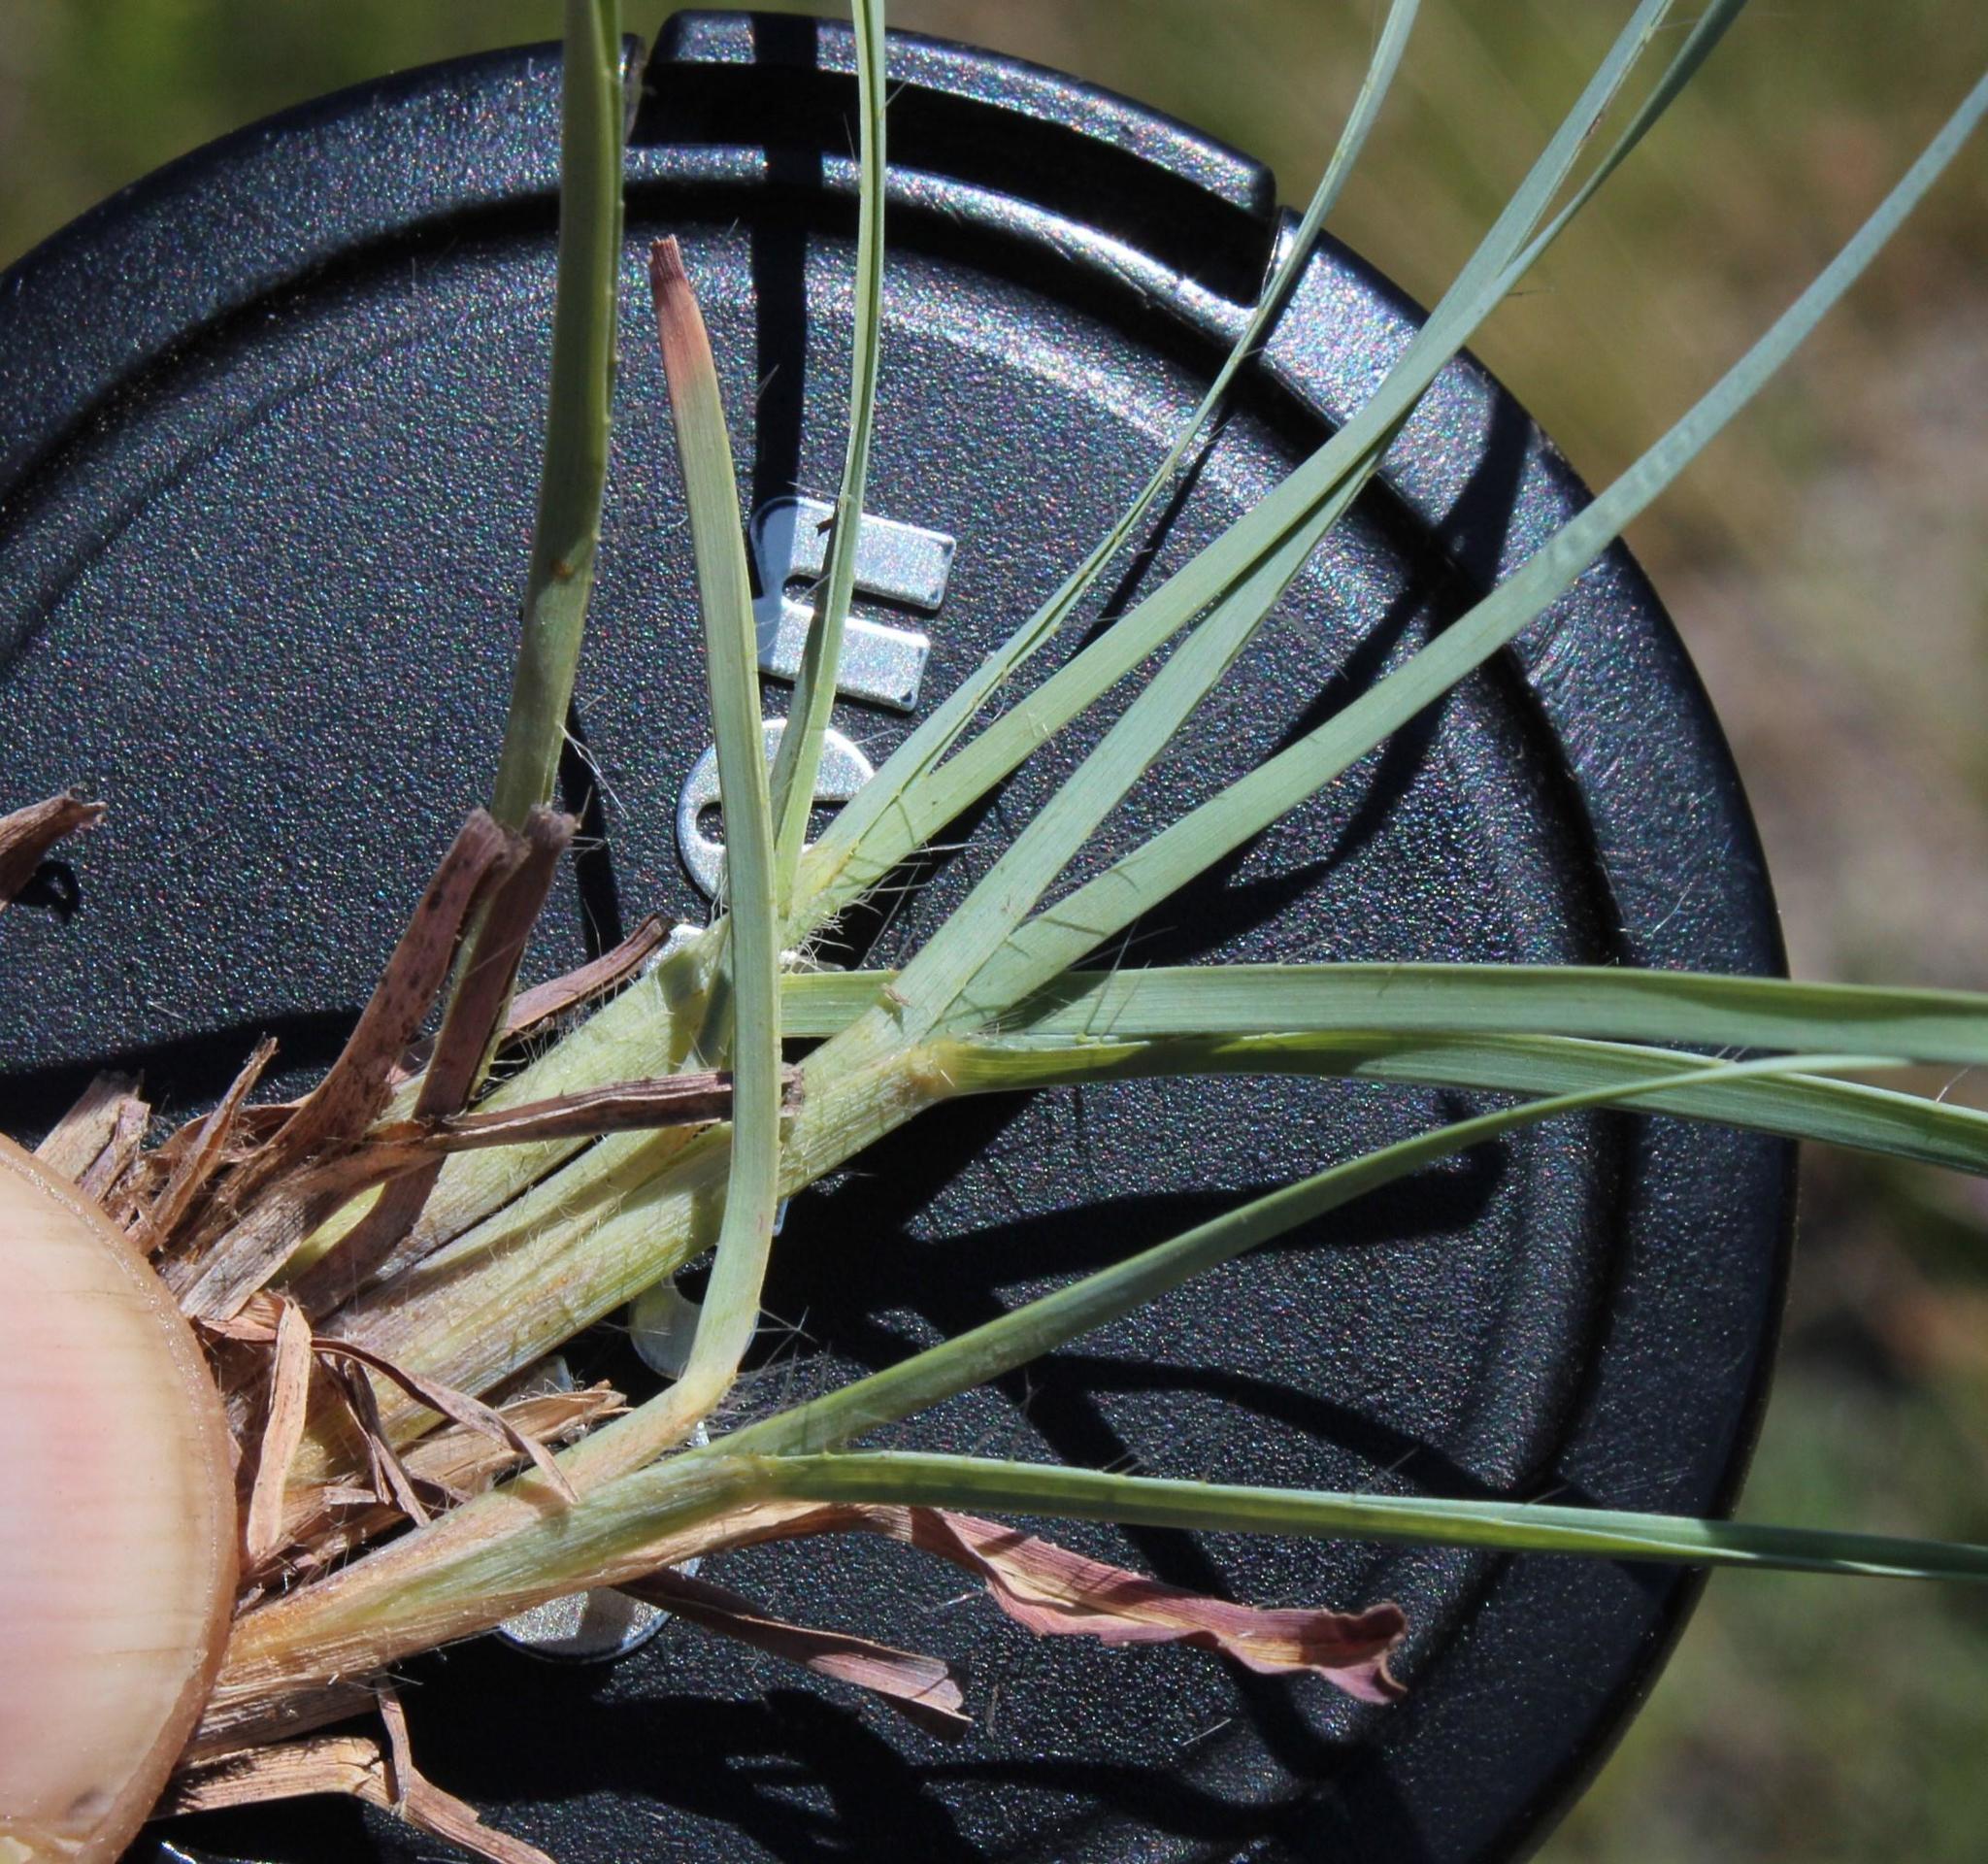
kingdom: Plantae
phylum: Tracheophyta
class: Liliopsida
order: Poales
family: Poaceae
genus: Themeda
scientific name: Themeda triandra
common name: Kangaroo grass
